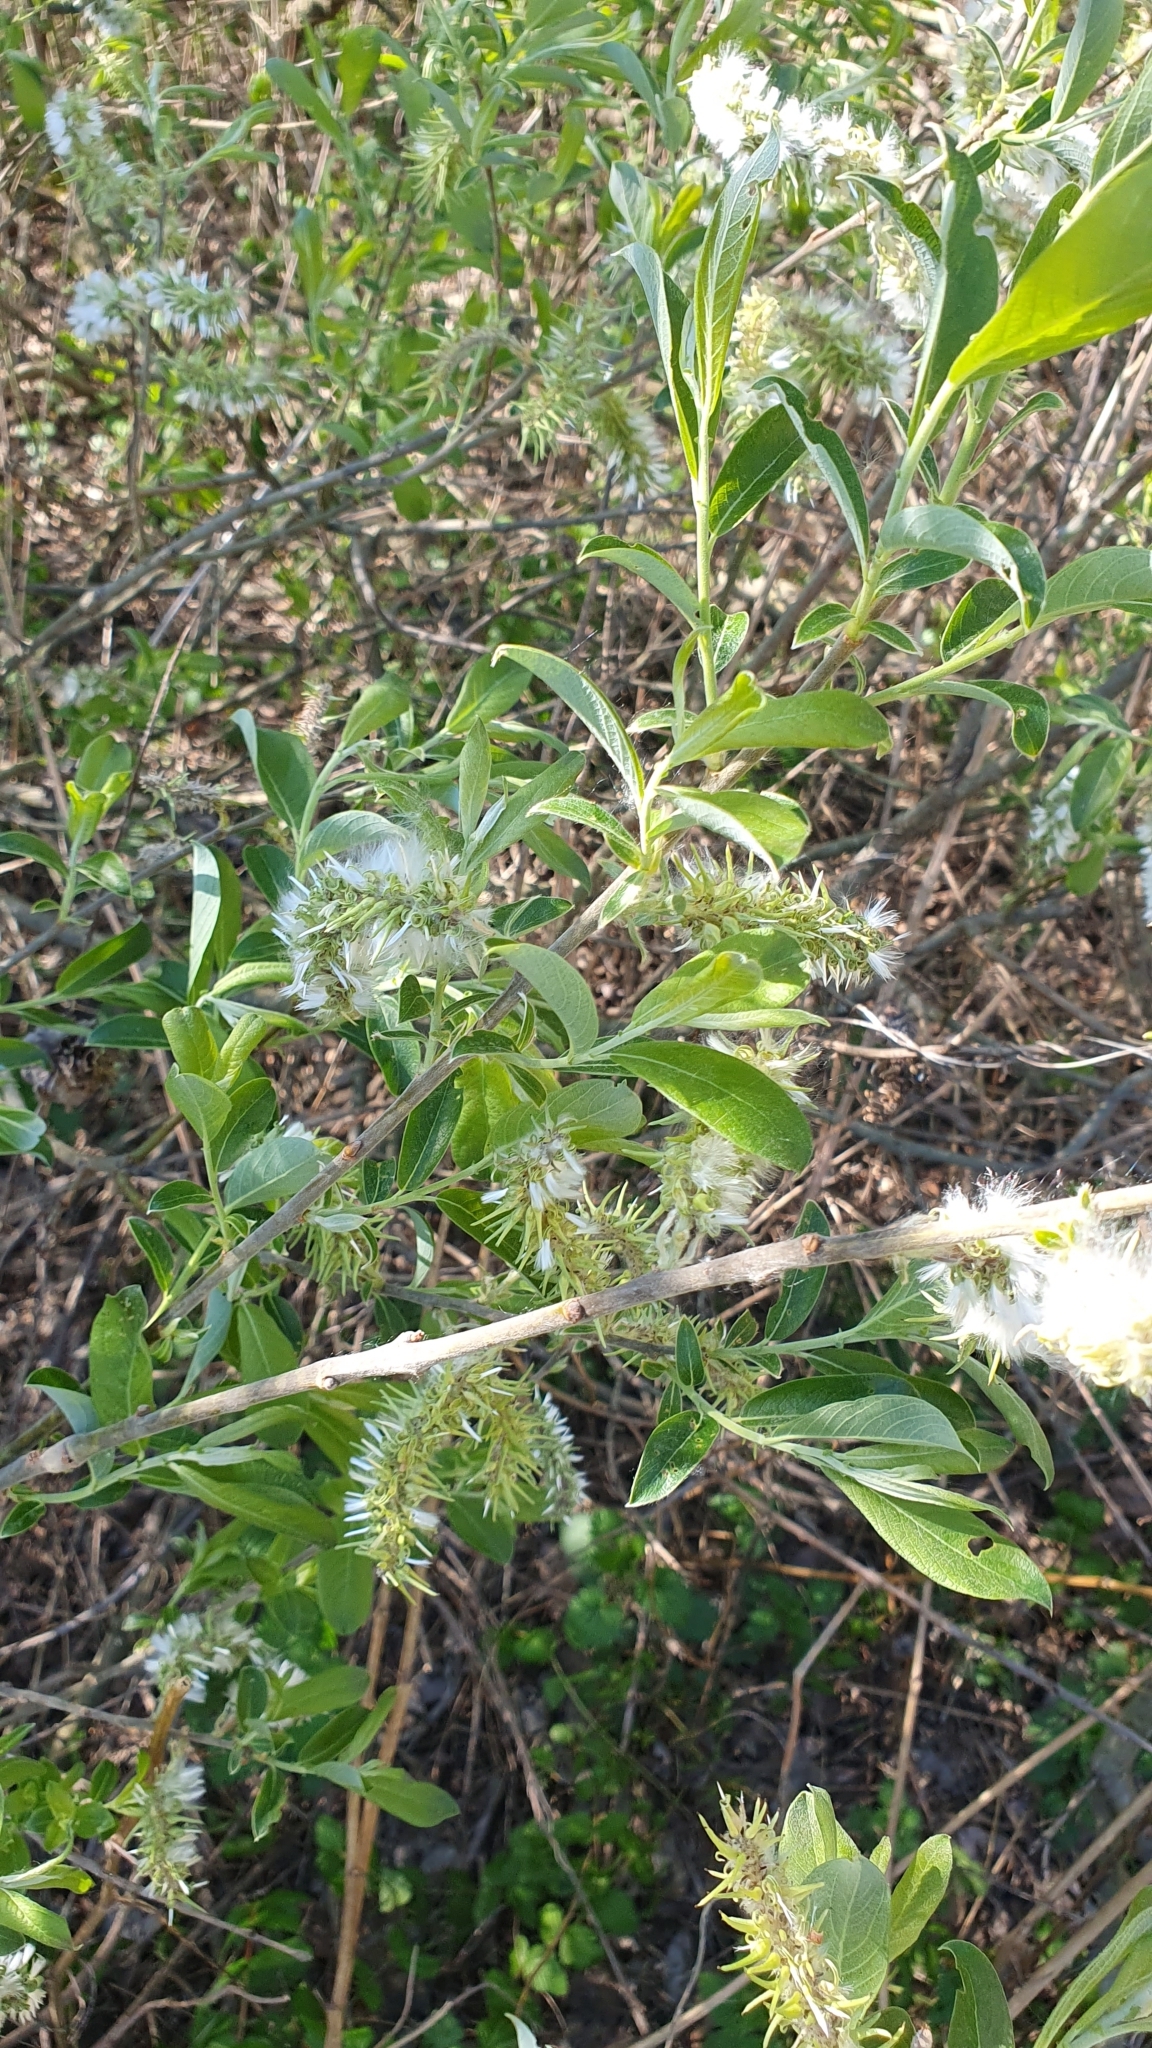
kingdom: Plantae
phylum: Tracheophyta
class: Magnoliopsida
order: Malpighiales
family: Salicaceae
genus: Salix
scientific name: Salix cinerea
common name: Common sallow
